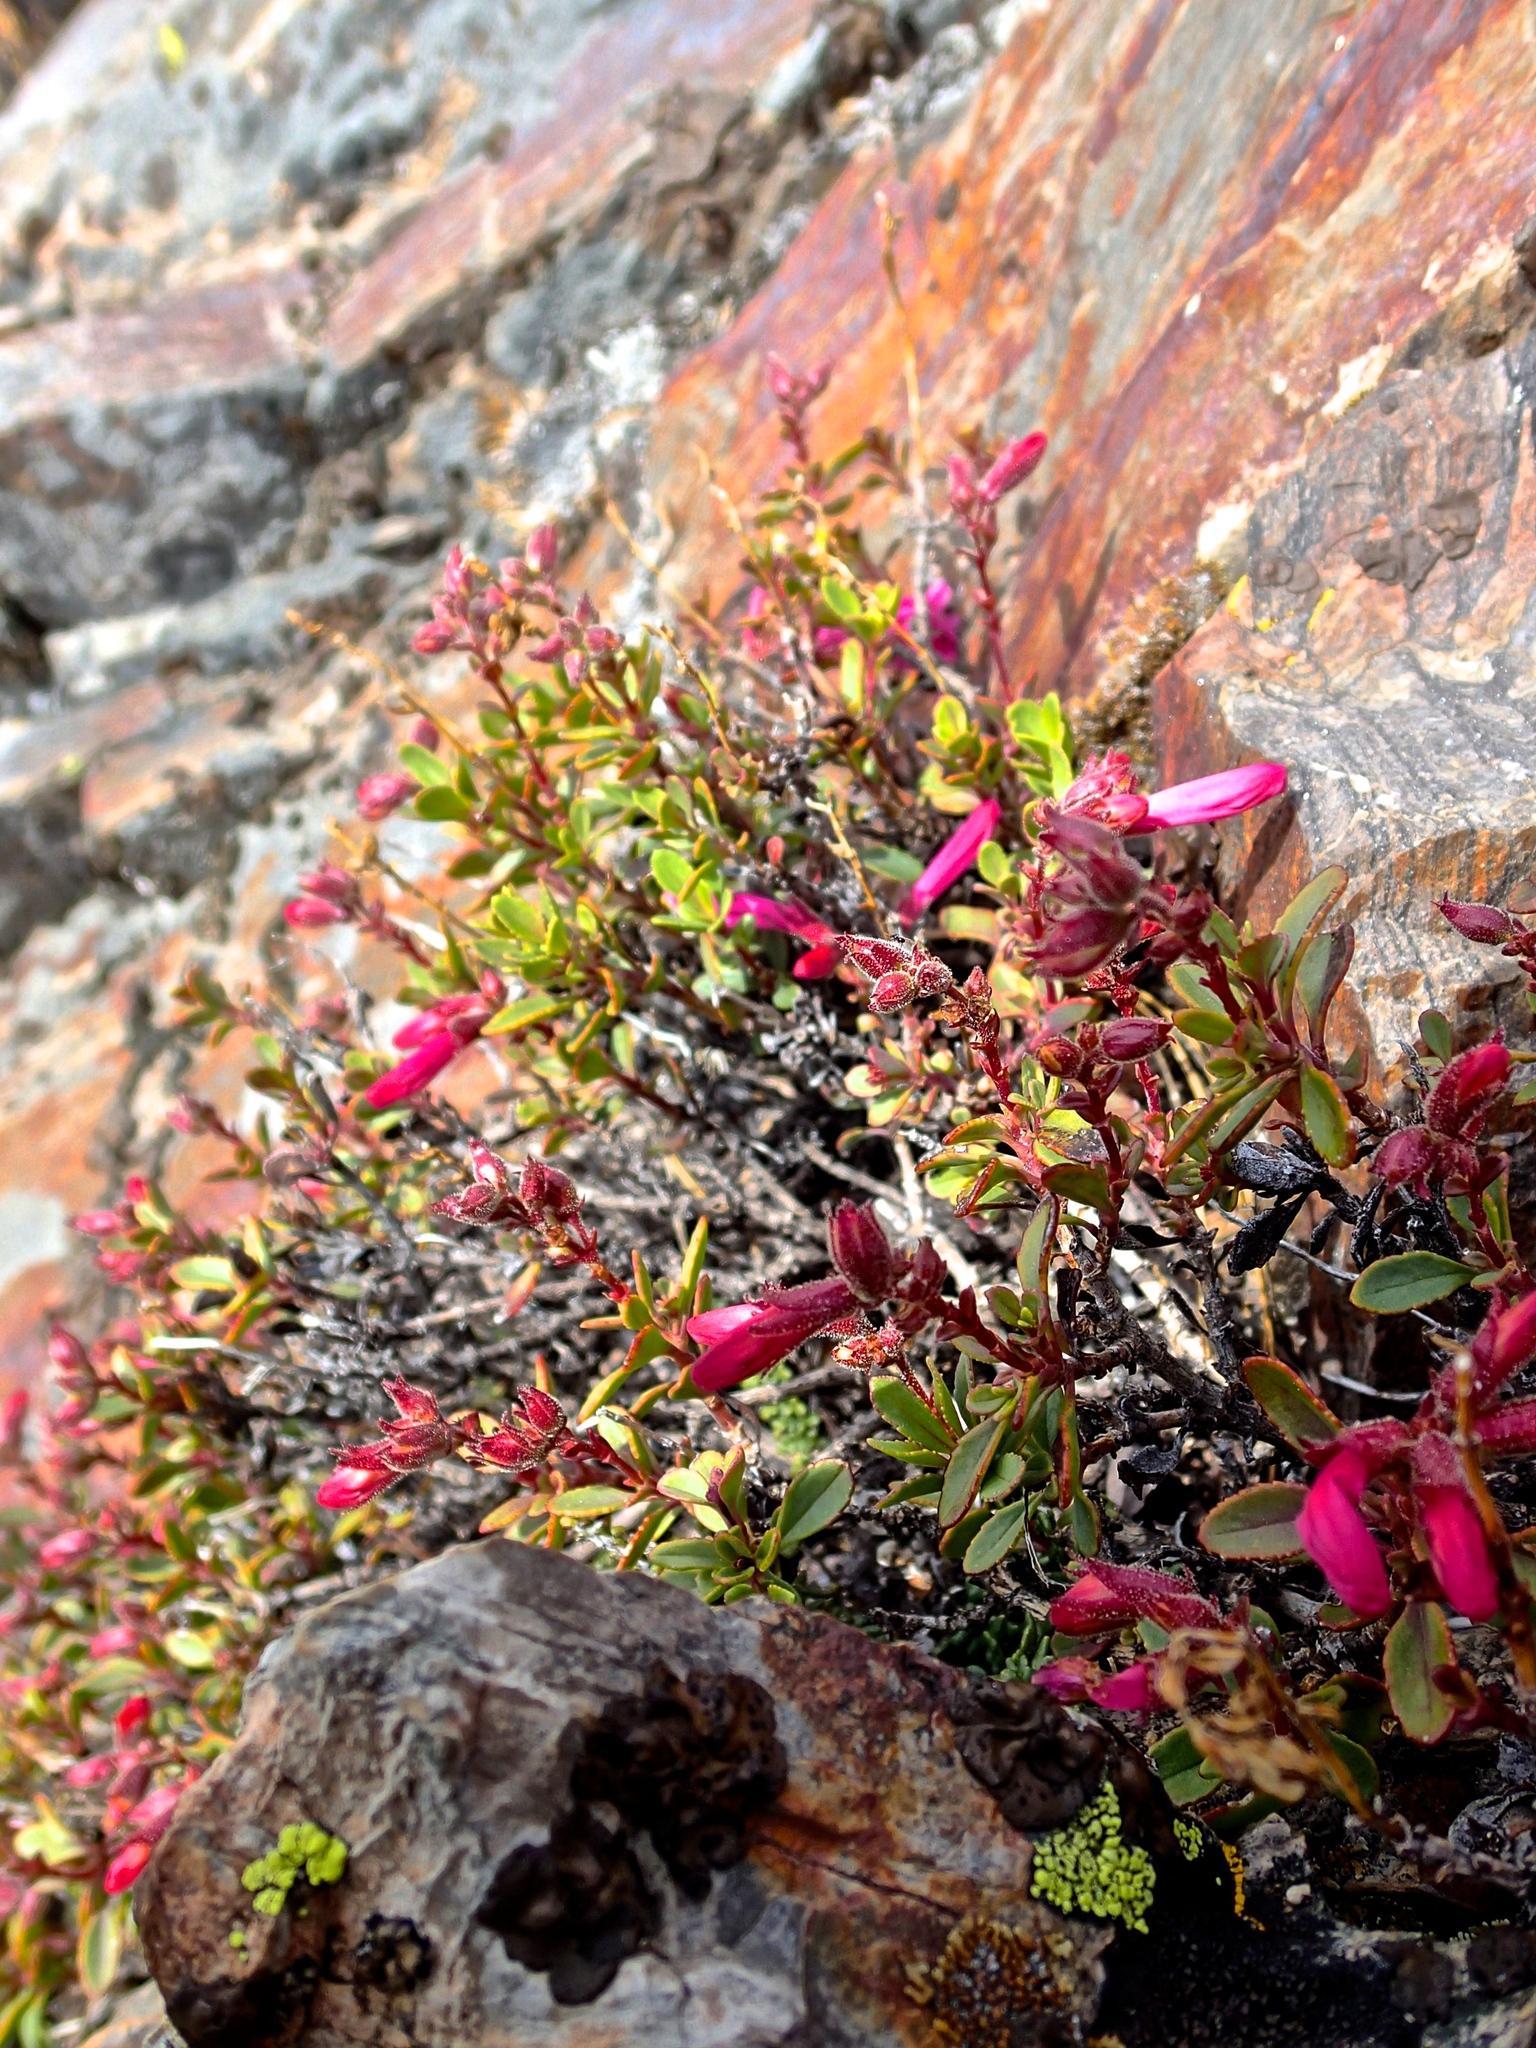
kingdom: Plantae
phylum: Tracheophyta
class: Magnoliopsida
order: Lamiales
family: Plantaginaceae
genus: Penstemon
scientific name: Penstemon newberryi
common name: Mountain-pride
